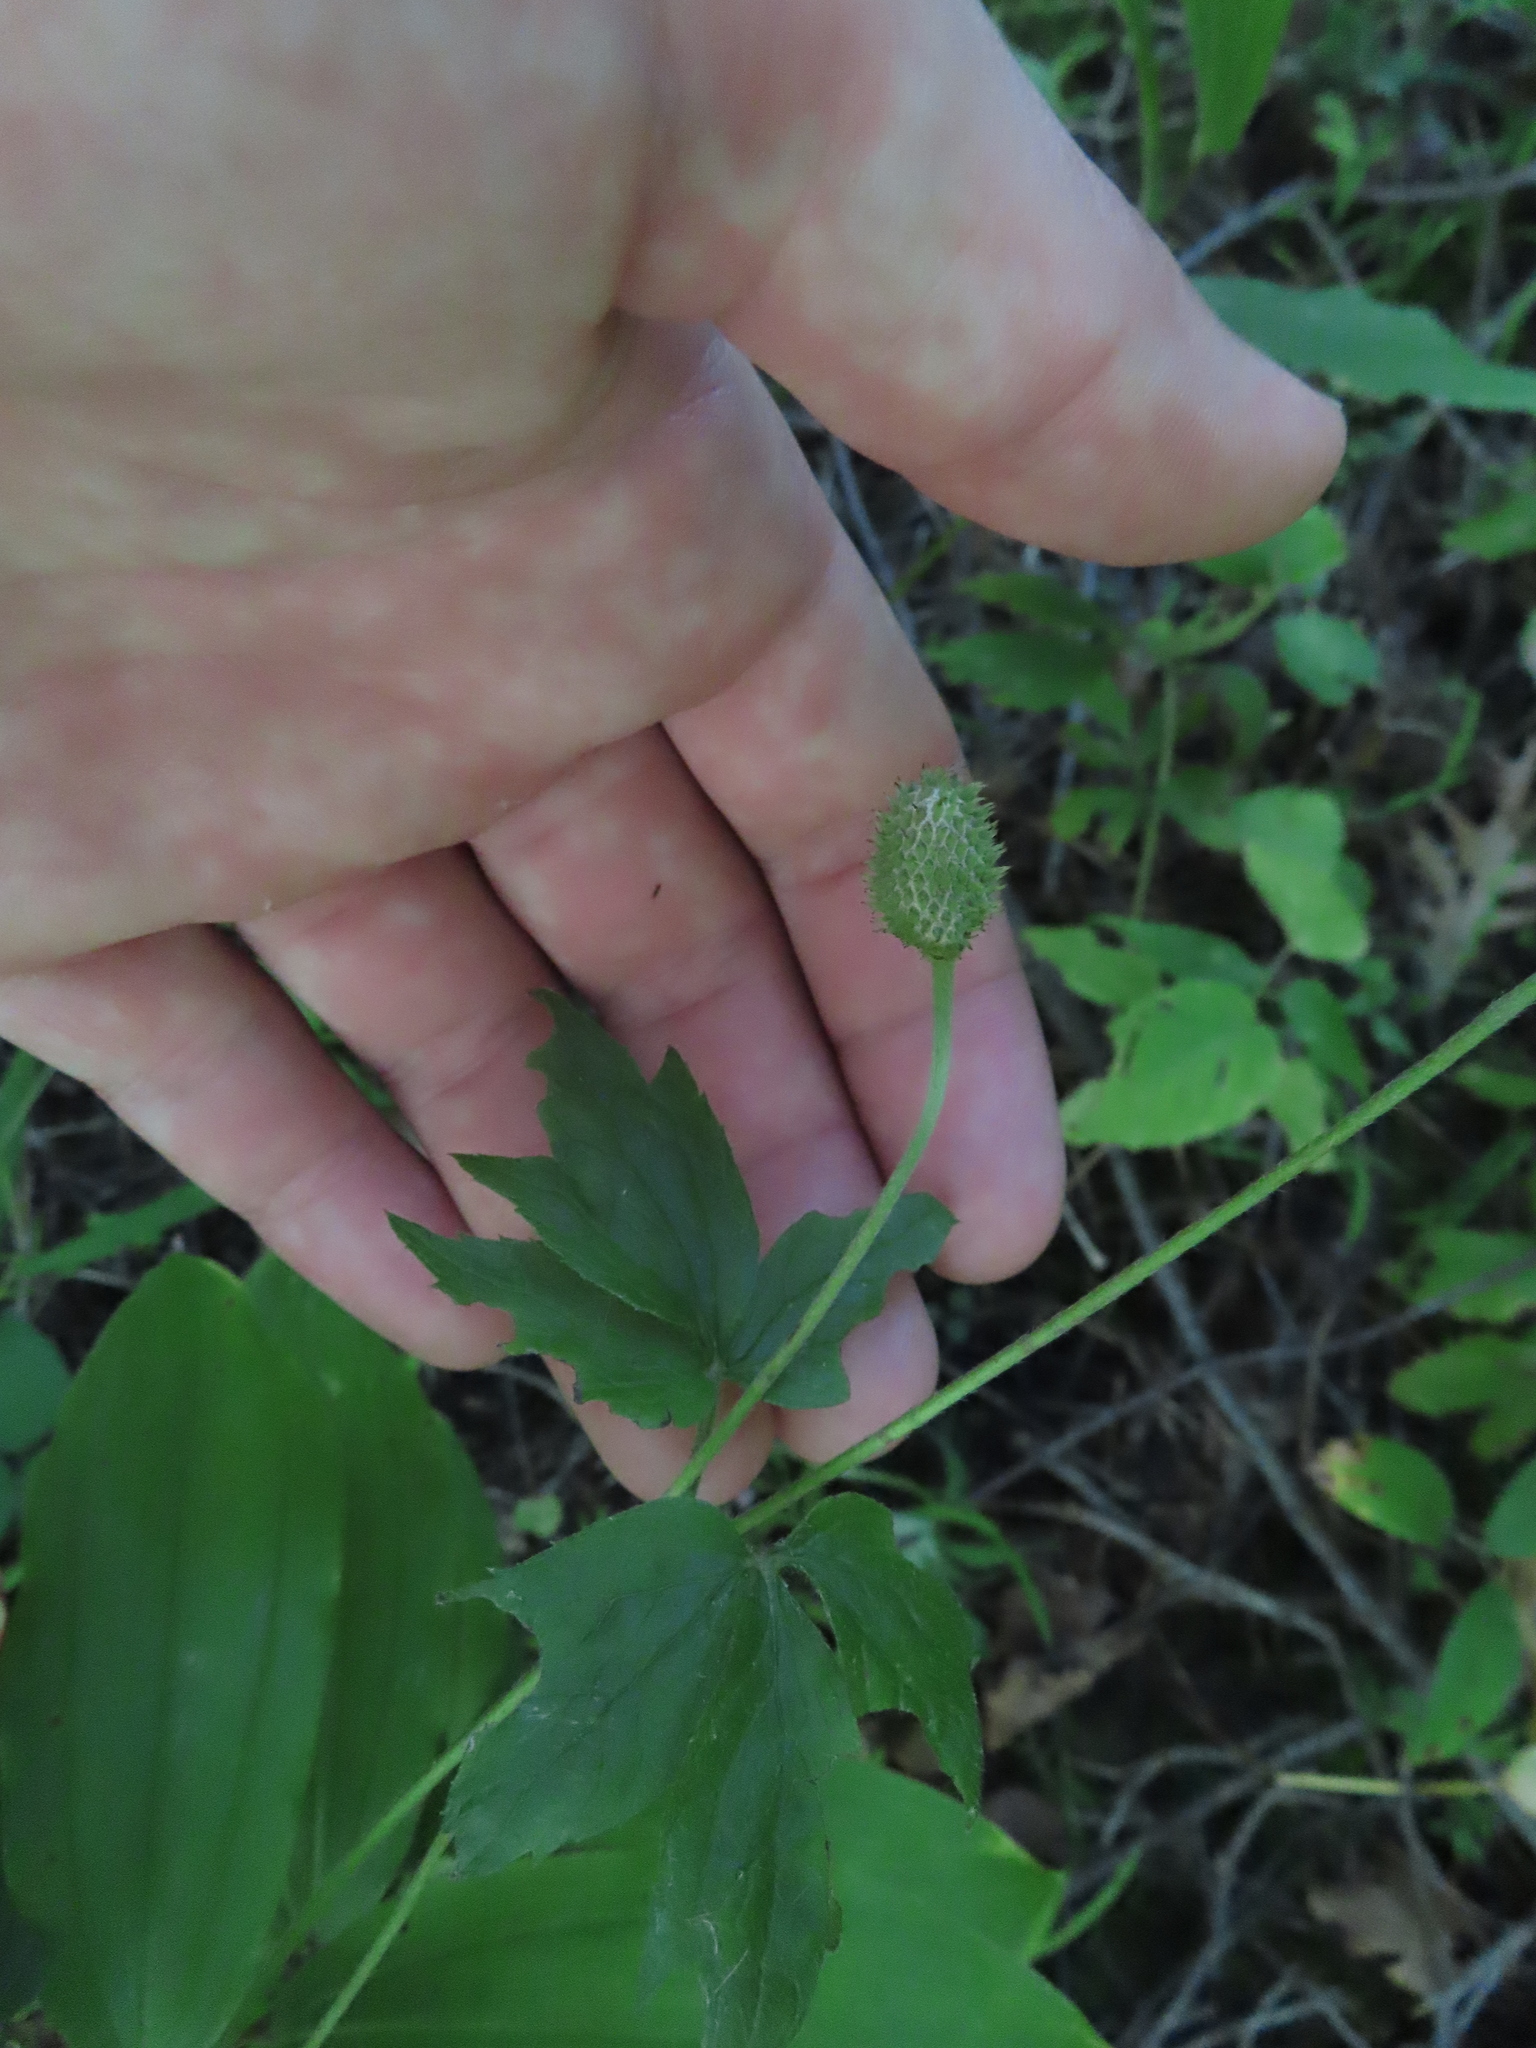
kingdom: Plantae
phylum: Tracheophyta
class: Magnoliopsida
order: Ranunculales
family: Ranunculaceae
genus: Anemone
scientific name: Anemone virginiana
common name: Tall anemone
